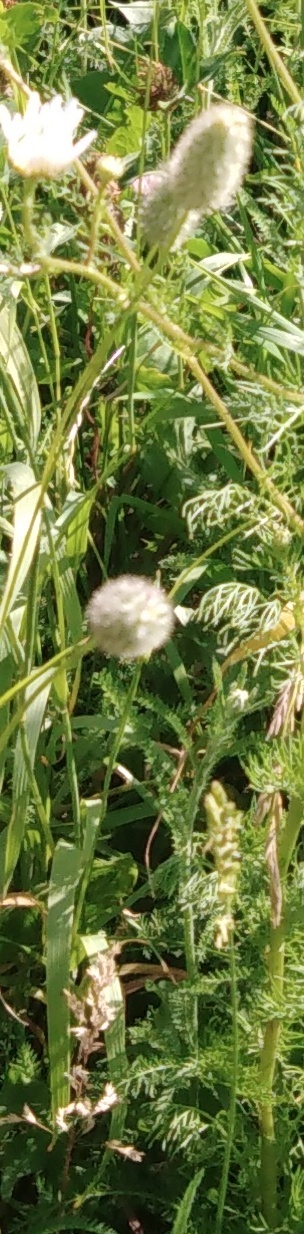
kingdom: Plantae
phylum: Tracheophyta
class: Magnoliopsida
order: Fabales
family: Fabaceae
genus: Trifolium
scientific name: Trifolium arvense
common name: Hare's-foot clover
